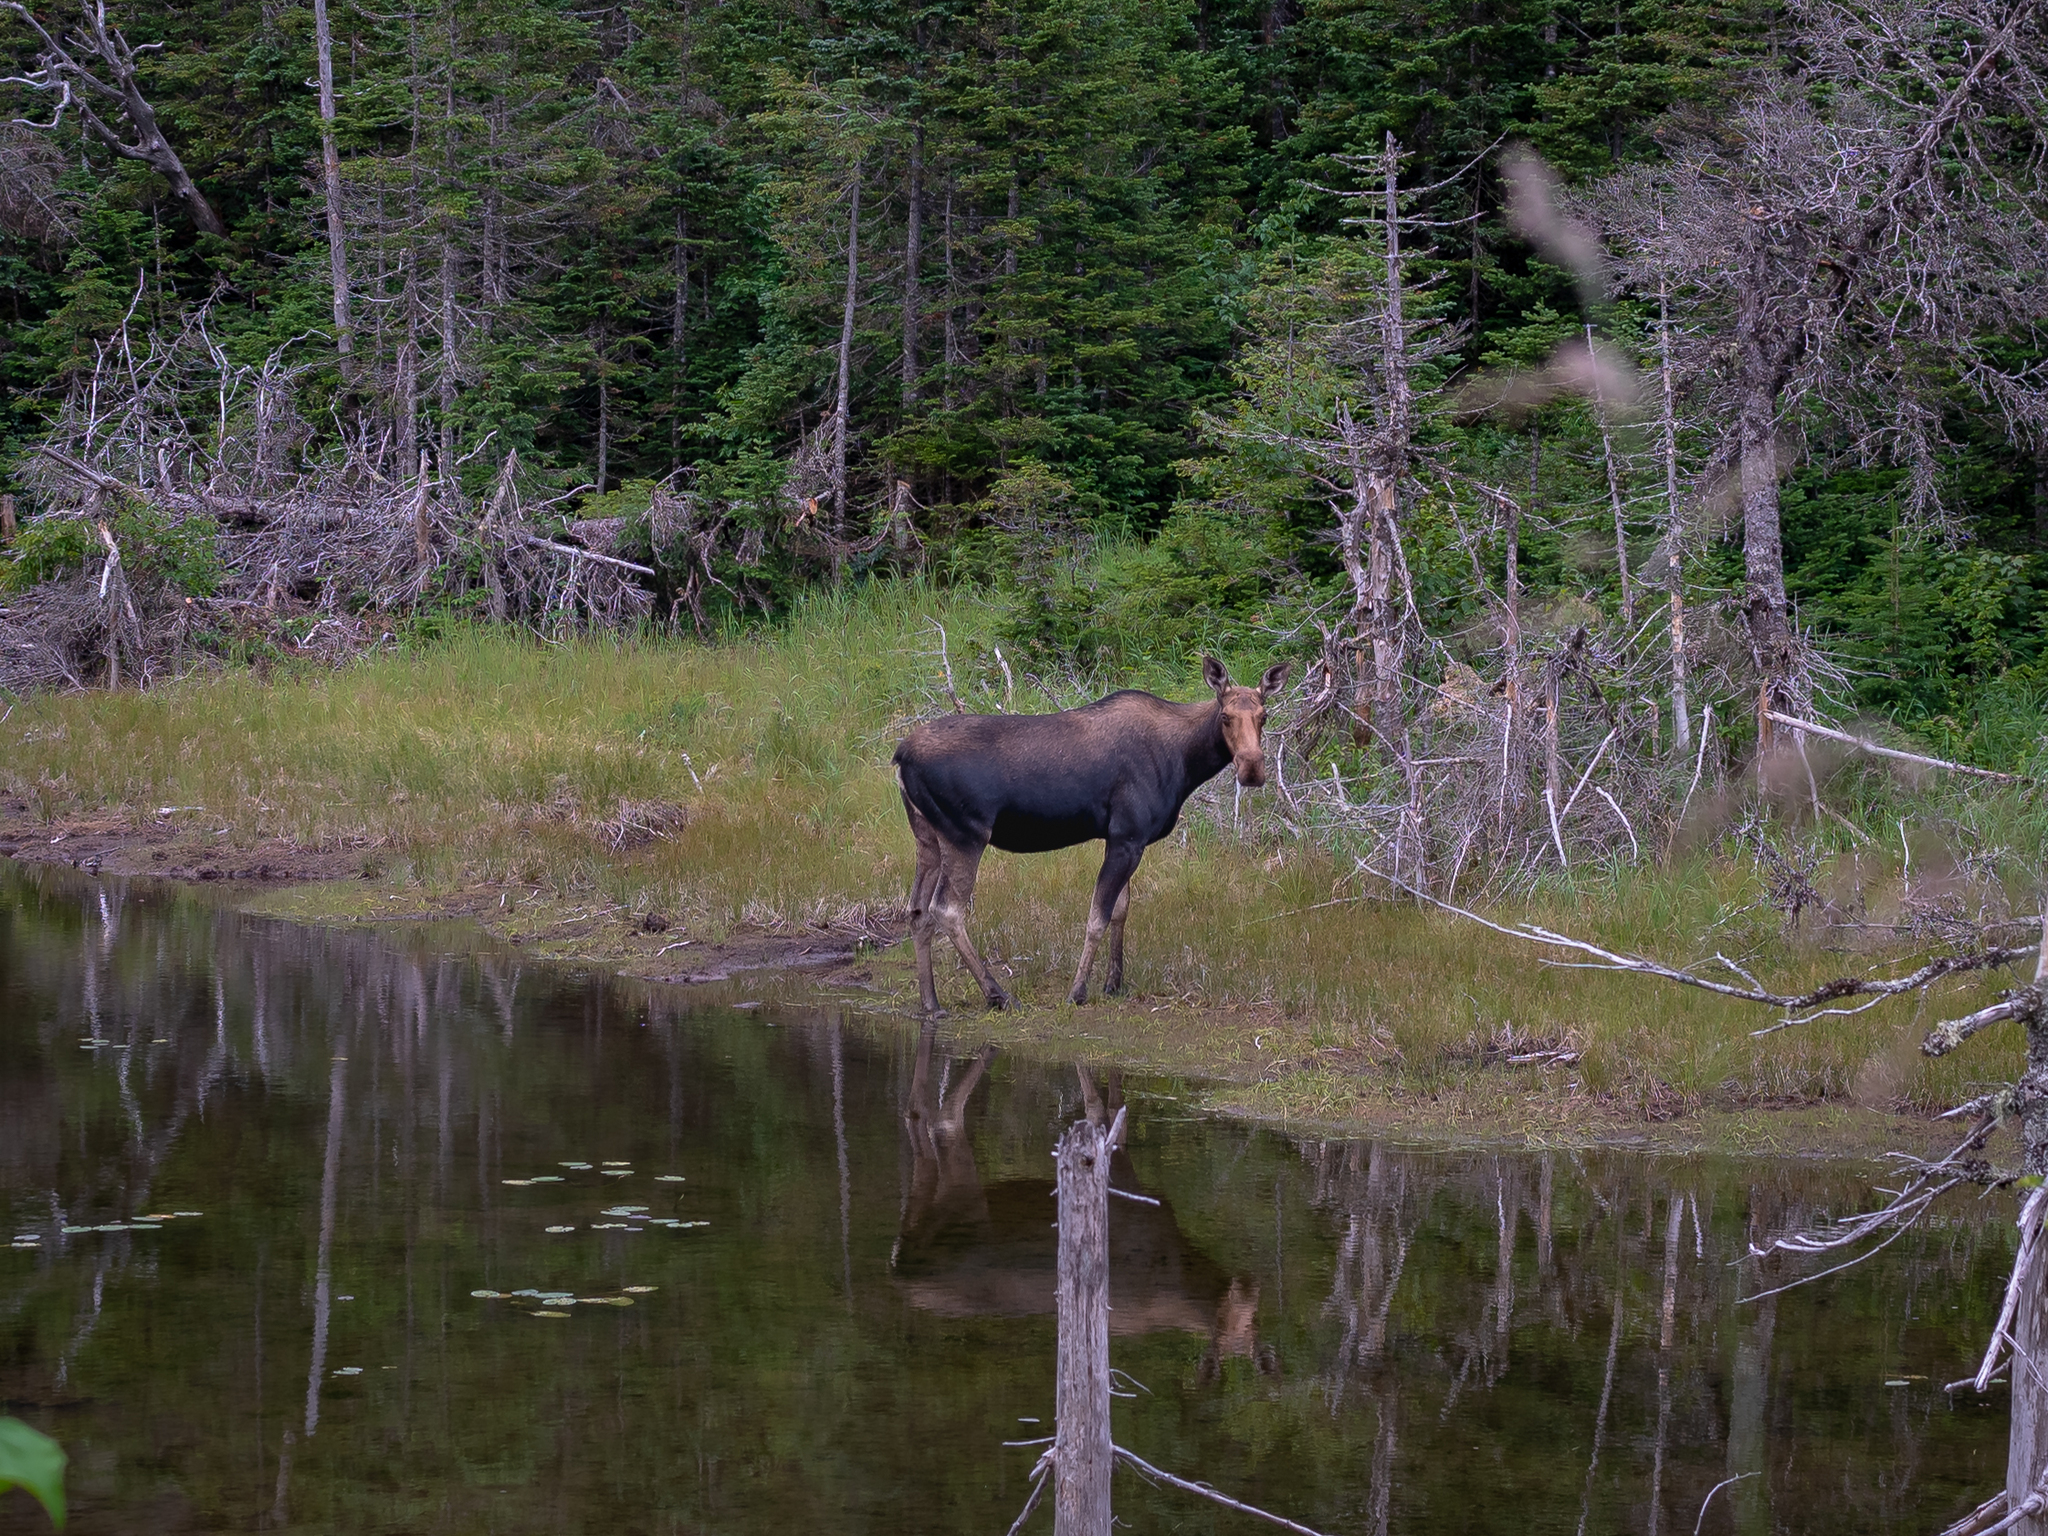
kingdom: Animalia
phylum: Chordata
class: Mammalia
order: Artiodactyla
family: Cervidae
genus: Alces
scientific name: Alces alces
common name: Moose
